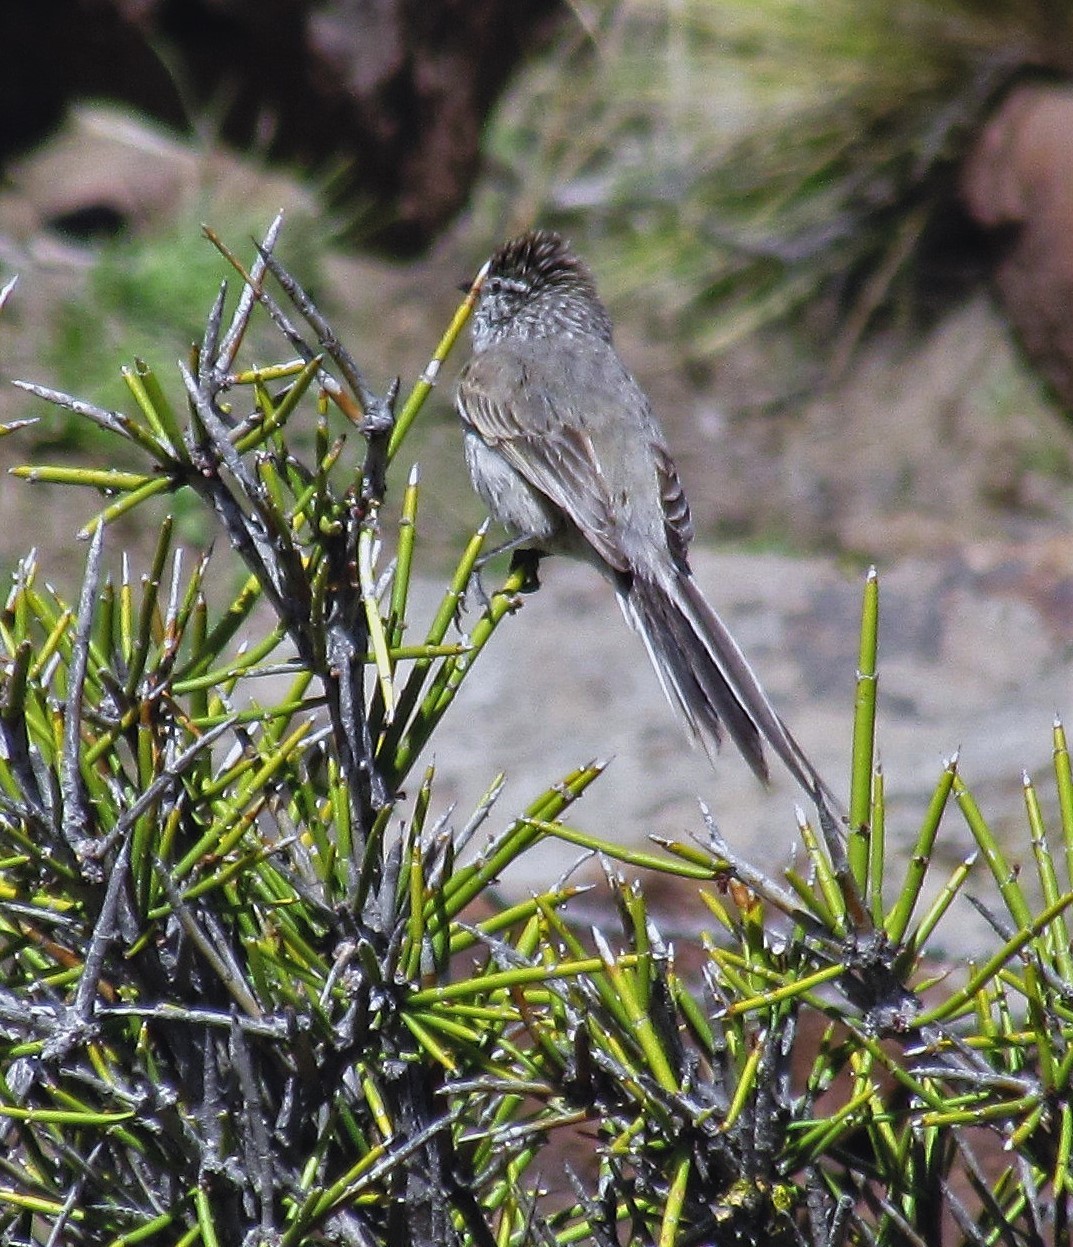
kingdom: Animalia
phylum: Chordata
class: Aves
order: Passeriformes
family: Furnariidae
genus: Leptasthenura
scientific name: Leptasthenura aegithaloides
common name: Plain-mantled tit-spinetail
